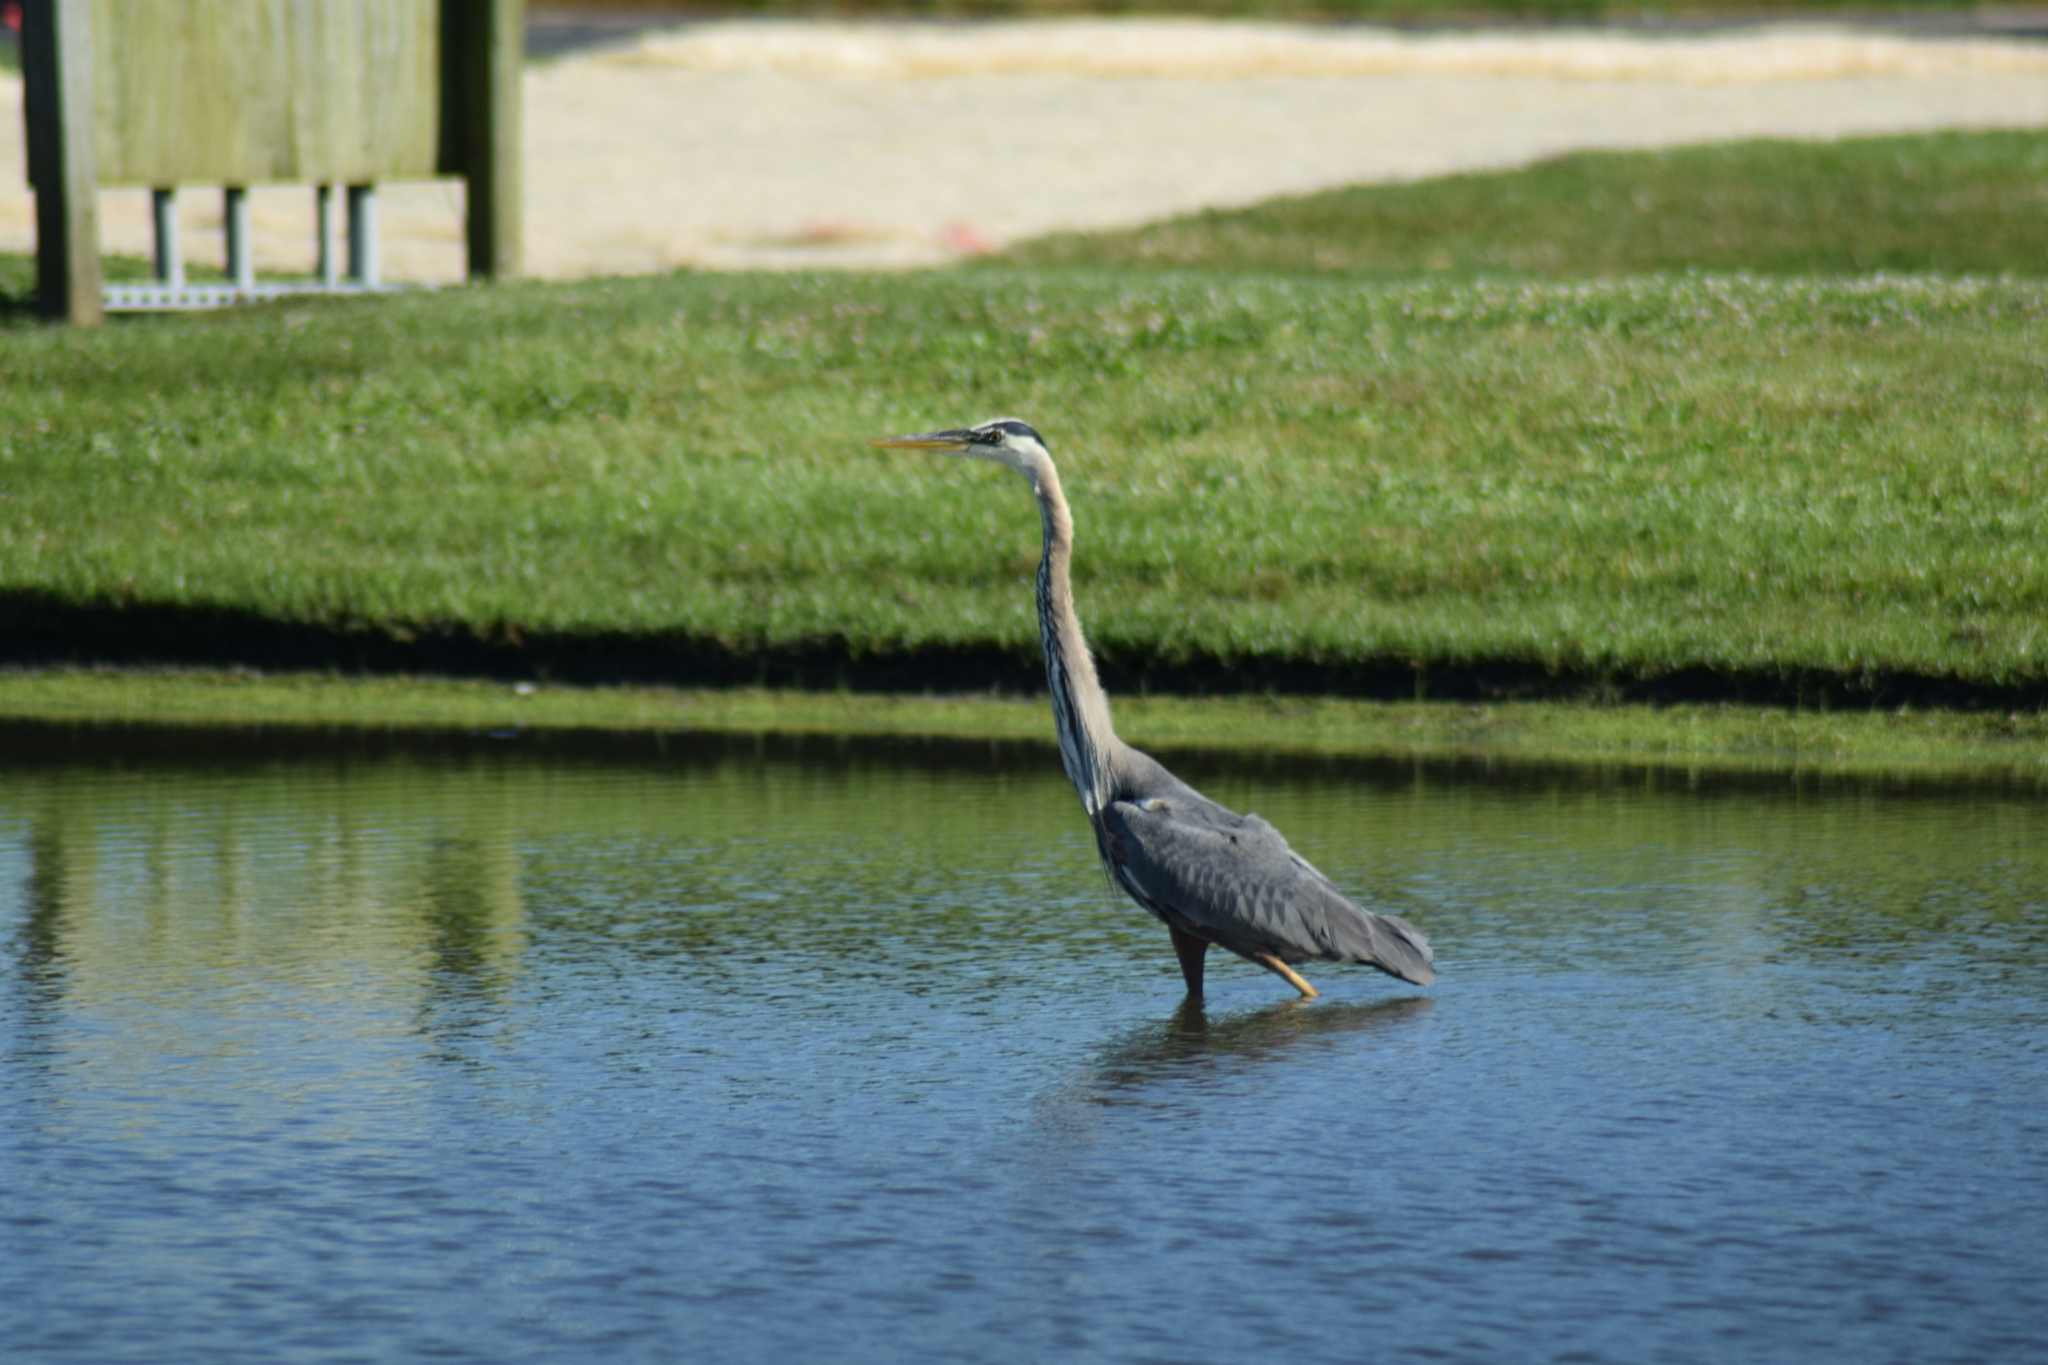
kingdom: Animalia
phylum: Chordata
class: Aves
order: Pelecaniformes
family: Ardeidae
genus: Ardea
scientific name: Ardea herodias
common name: Great blue heron
